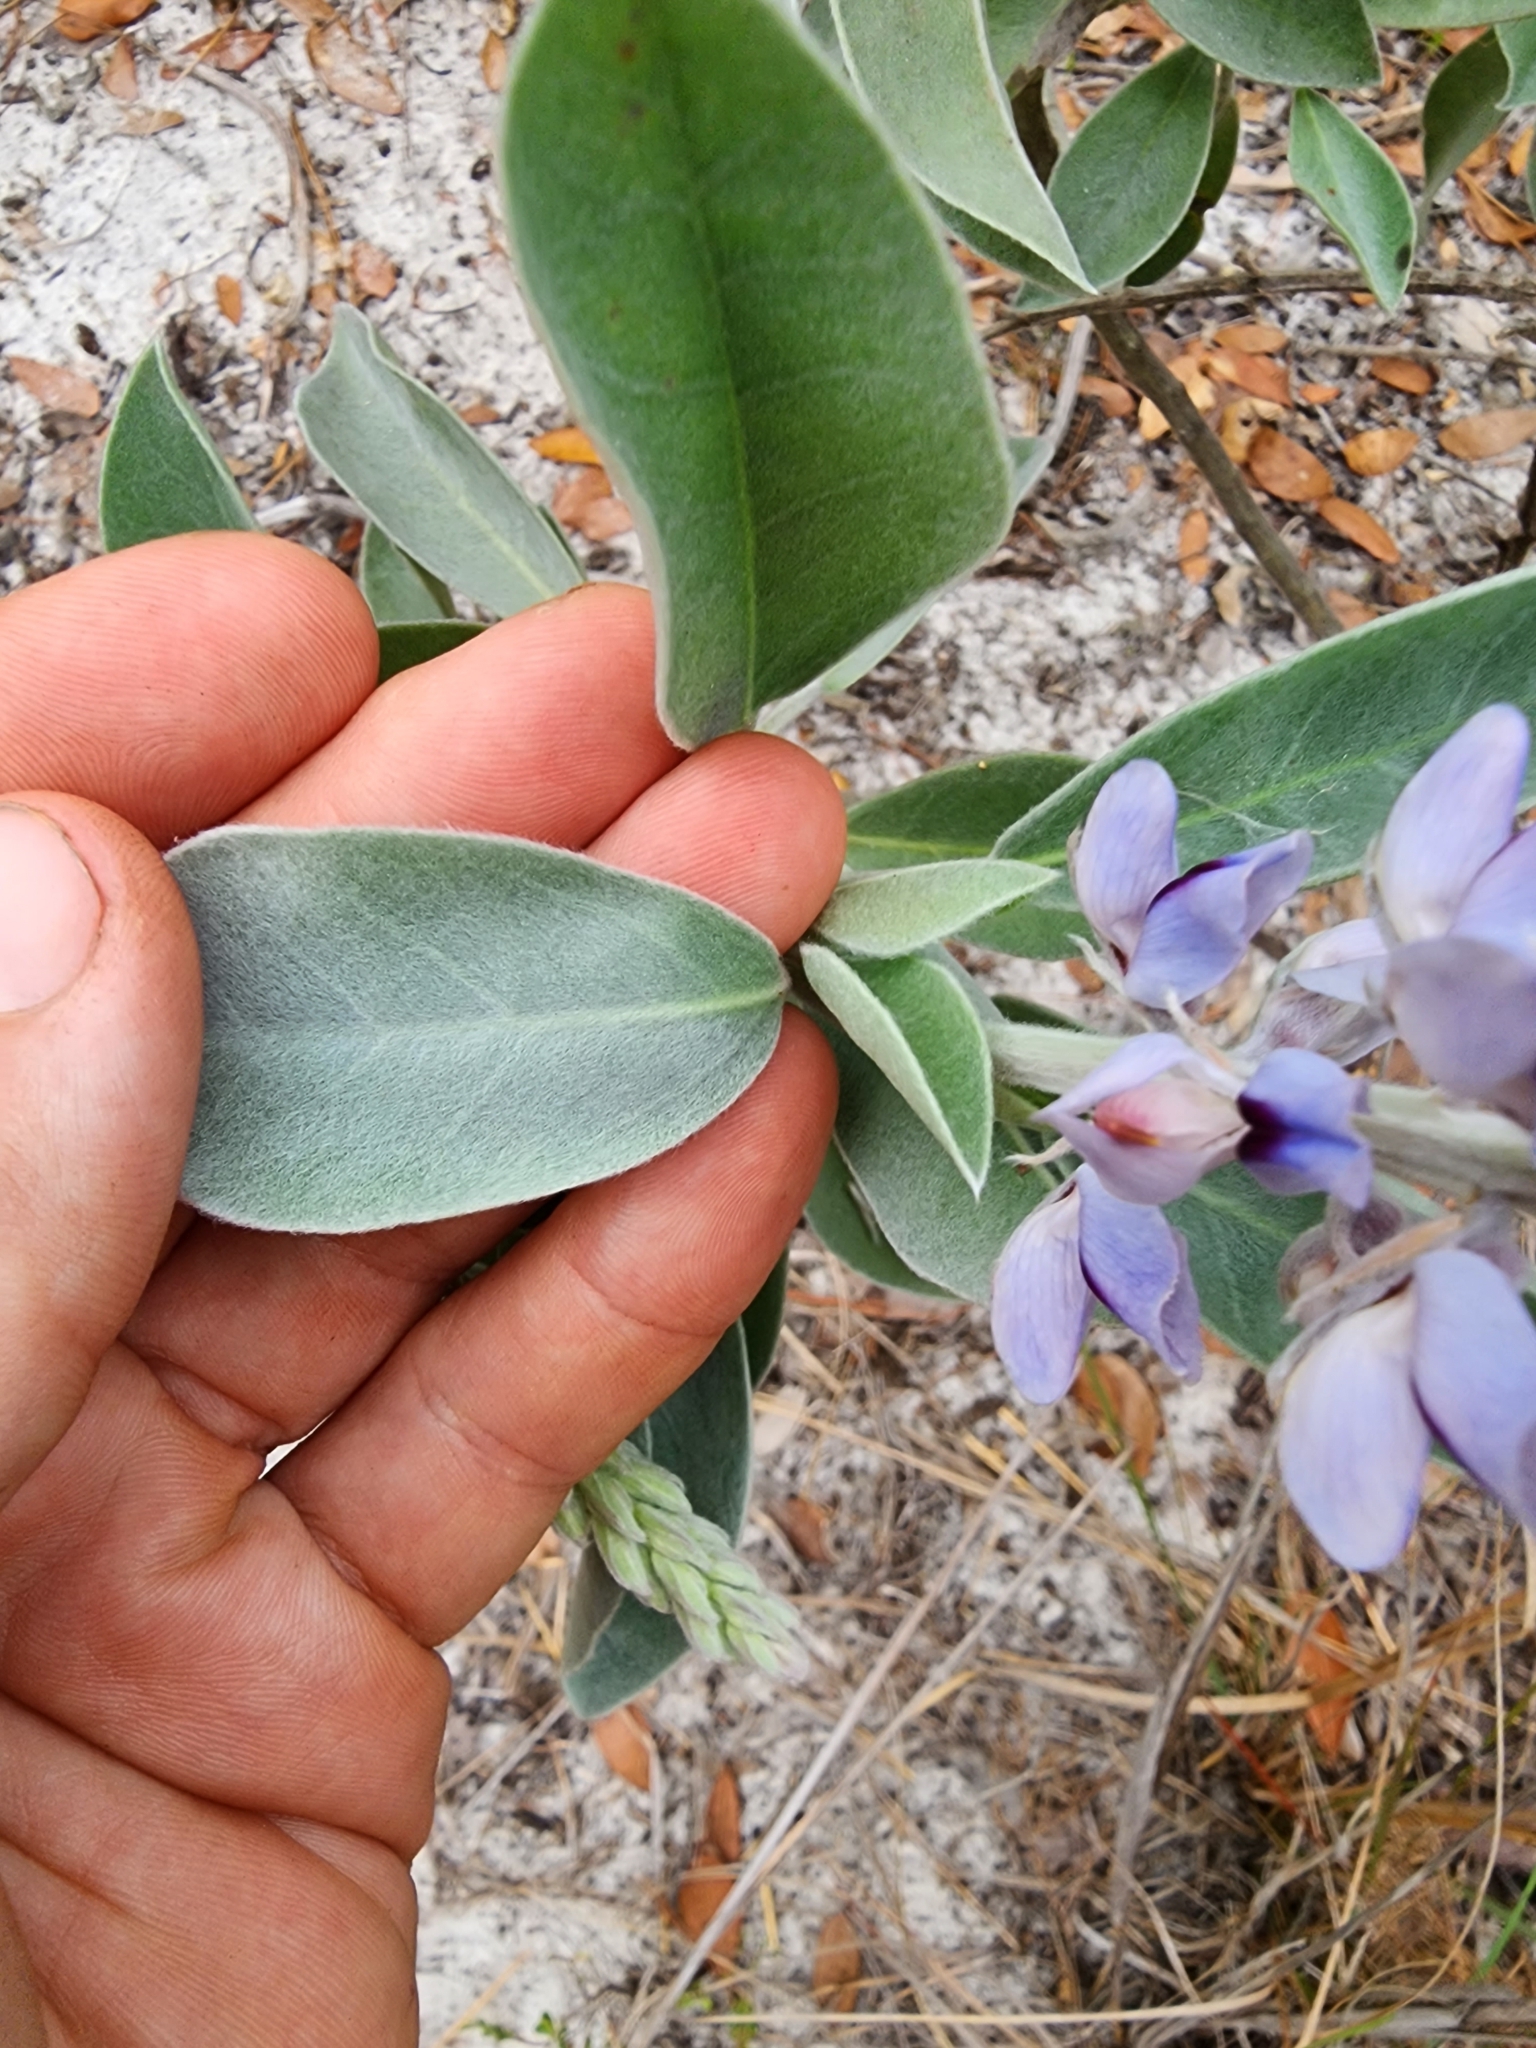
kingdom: Plantae
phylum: Tracheophyta
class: Magnoliopsida
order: Fabales
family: Fabaceae
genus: Lupinus
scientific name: Lupinus westianus
